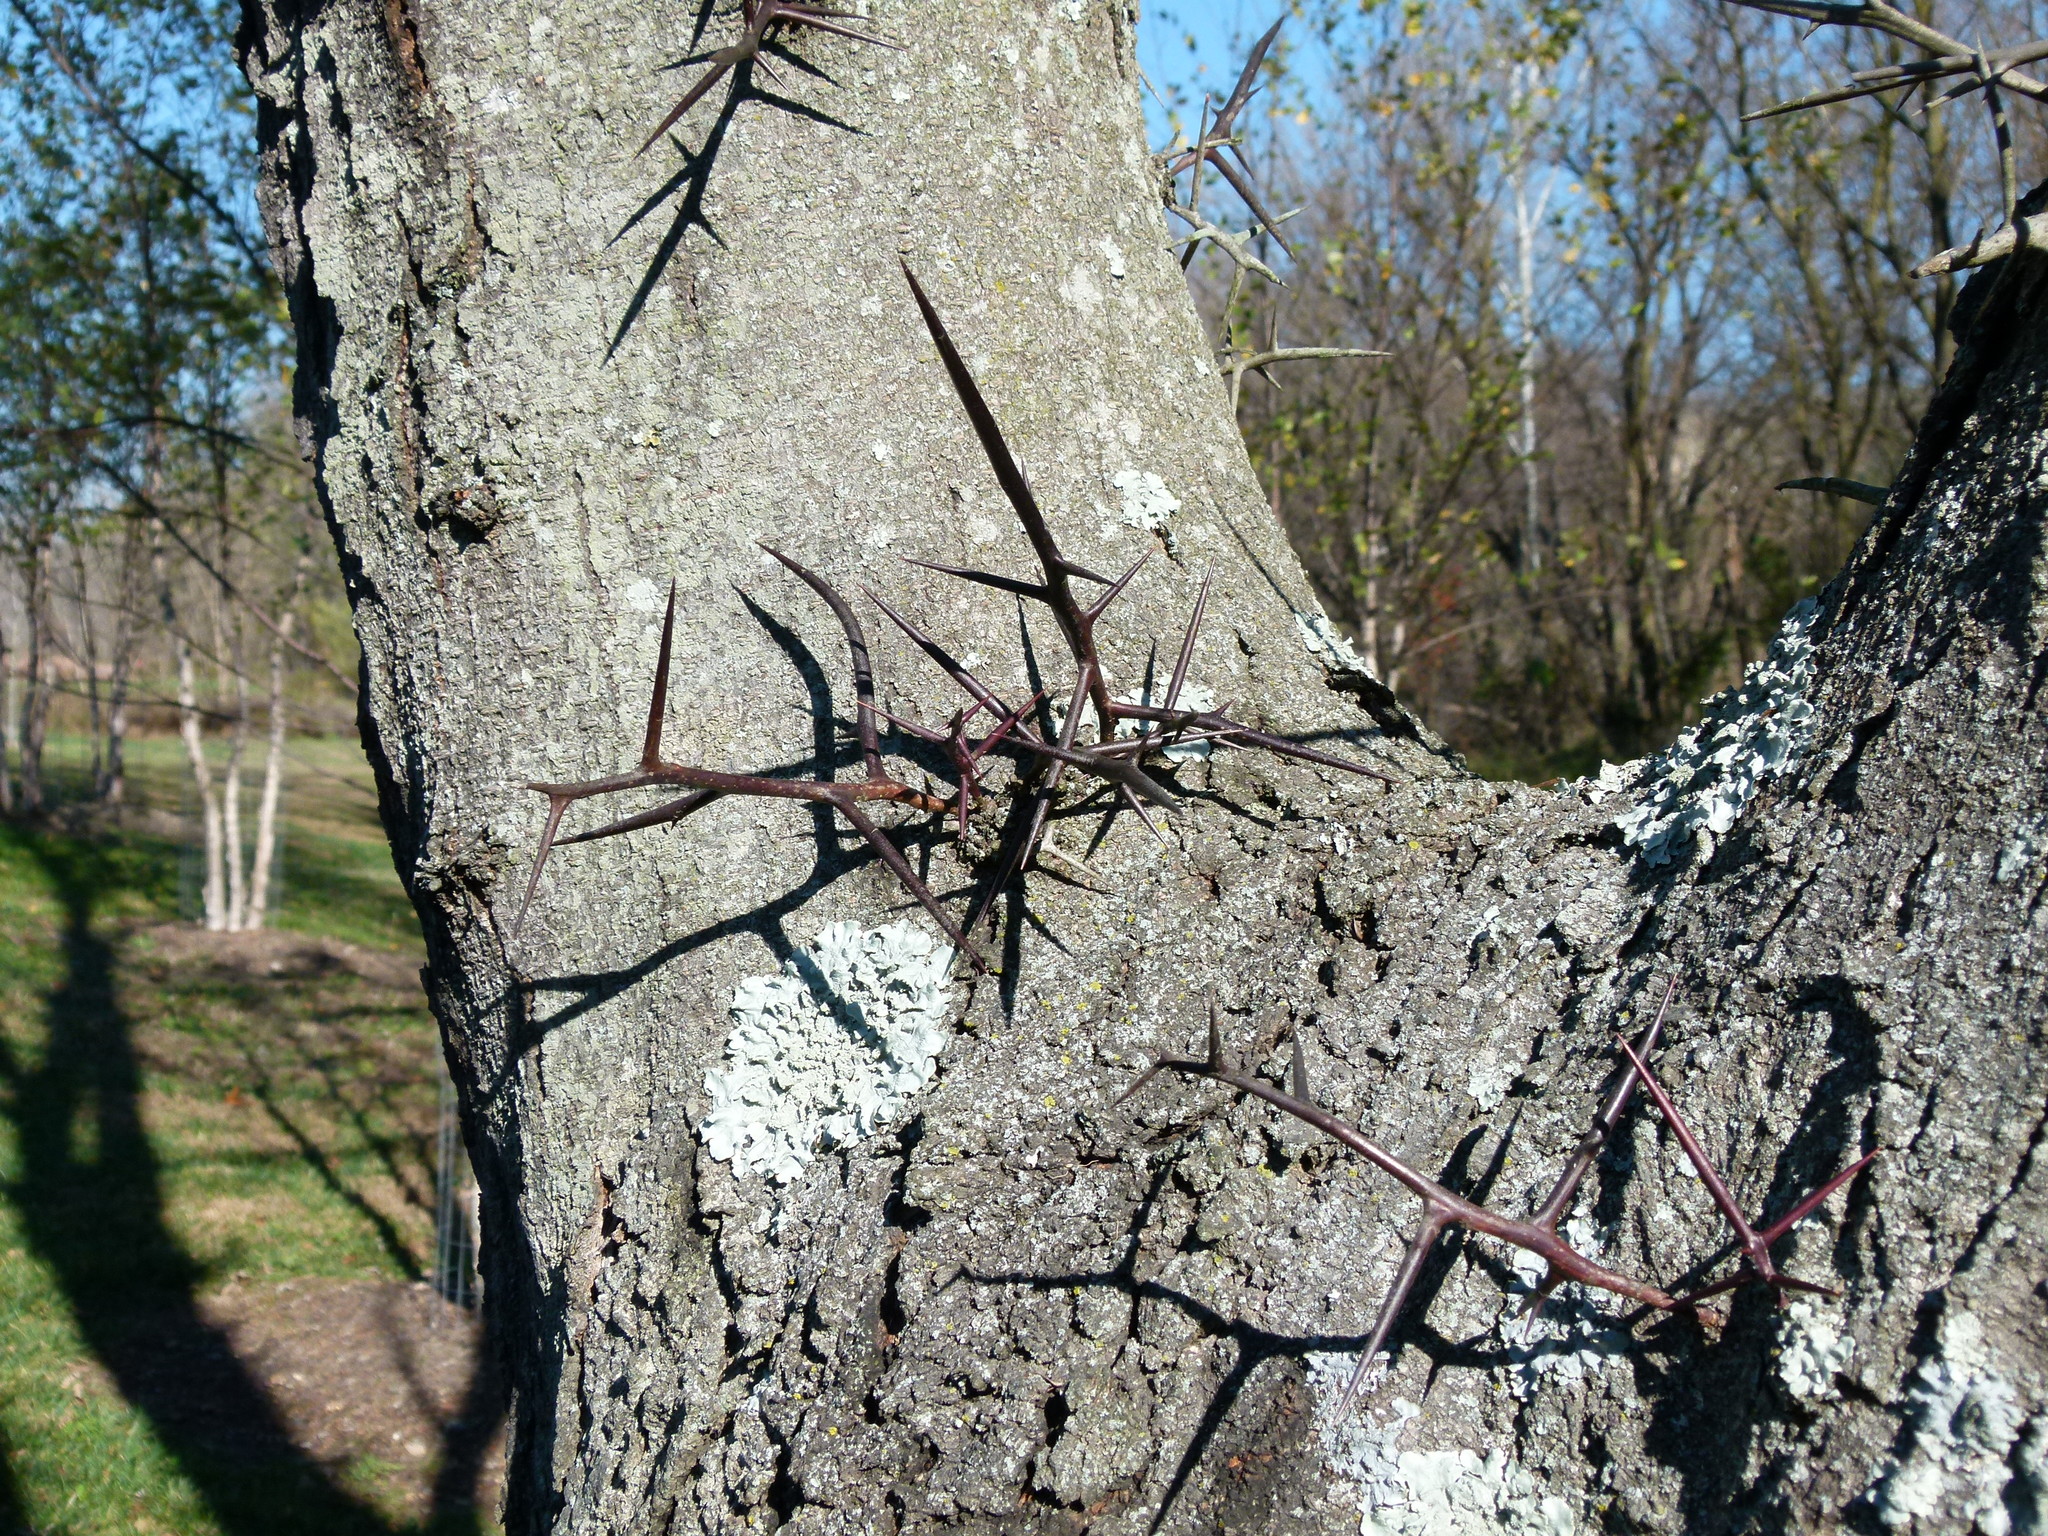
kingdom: Plantae
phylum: Tracheophyta
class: Magnoliopsida
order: Fabales
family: Fabaceae
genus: Gleditsia
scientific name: Gleditsia triacanthos
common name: Common honeylocust
